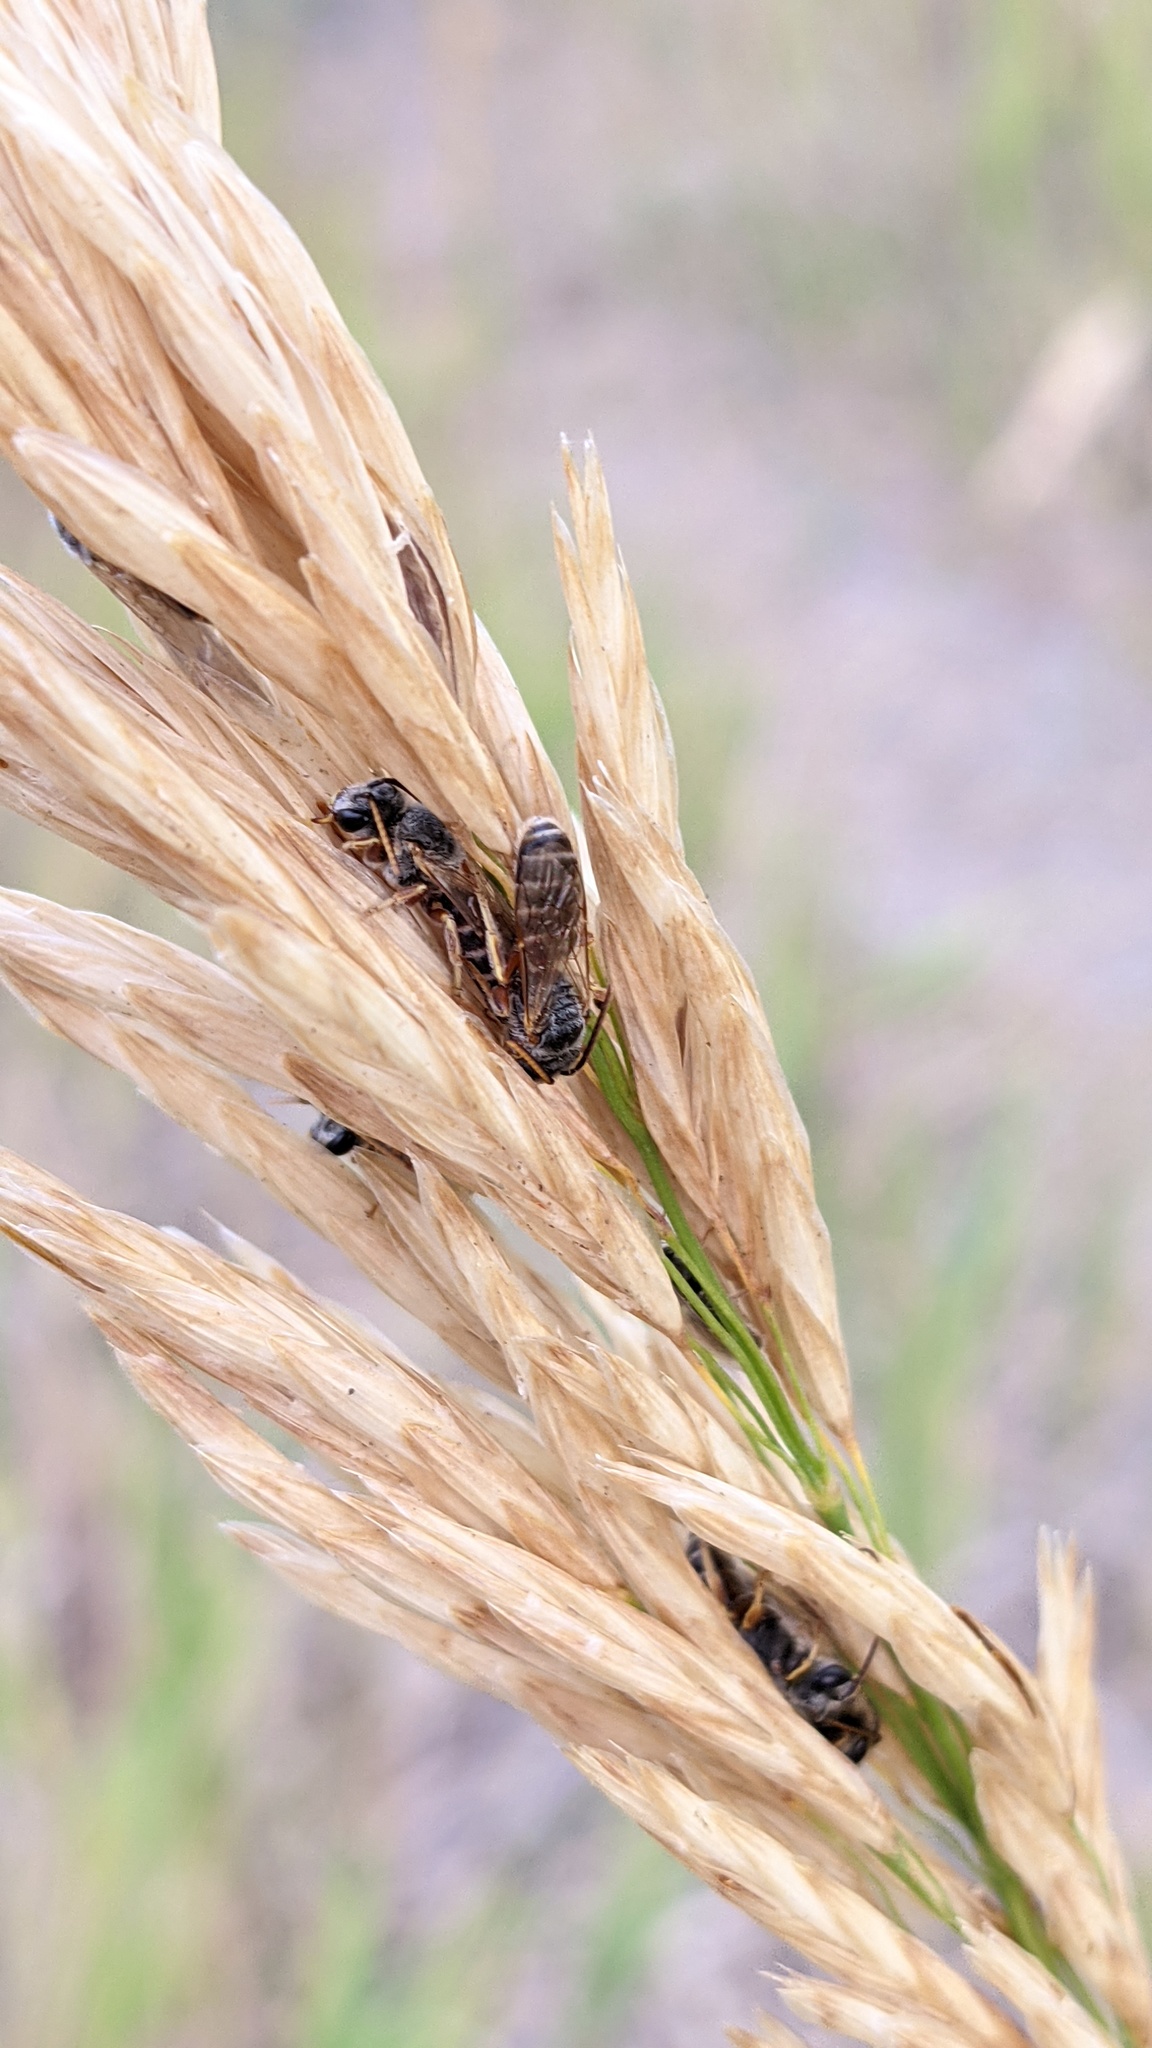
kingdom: Animalia
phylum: Arthropoda
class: Insecta
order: Hymenoptera
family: Halictidae
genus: Halictus
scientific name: Halictus ligatus
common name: Ligated furrow bee
